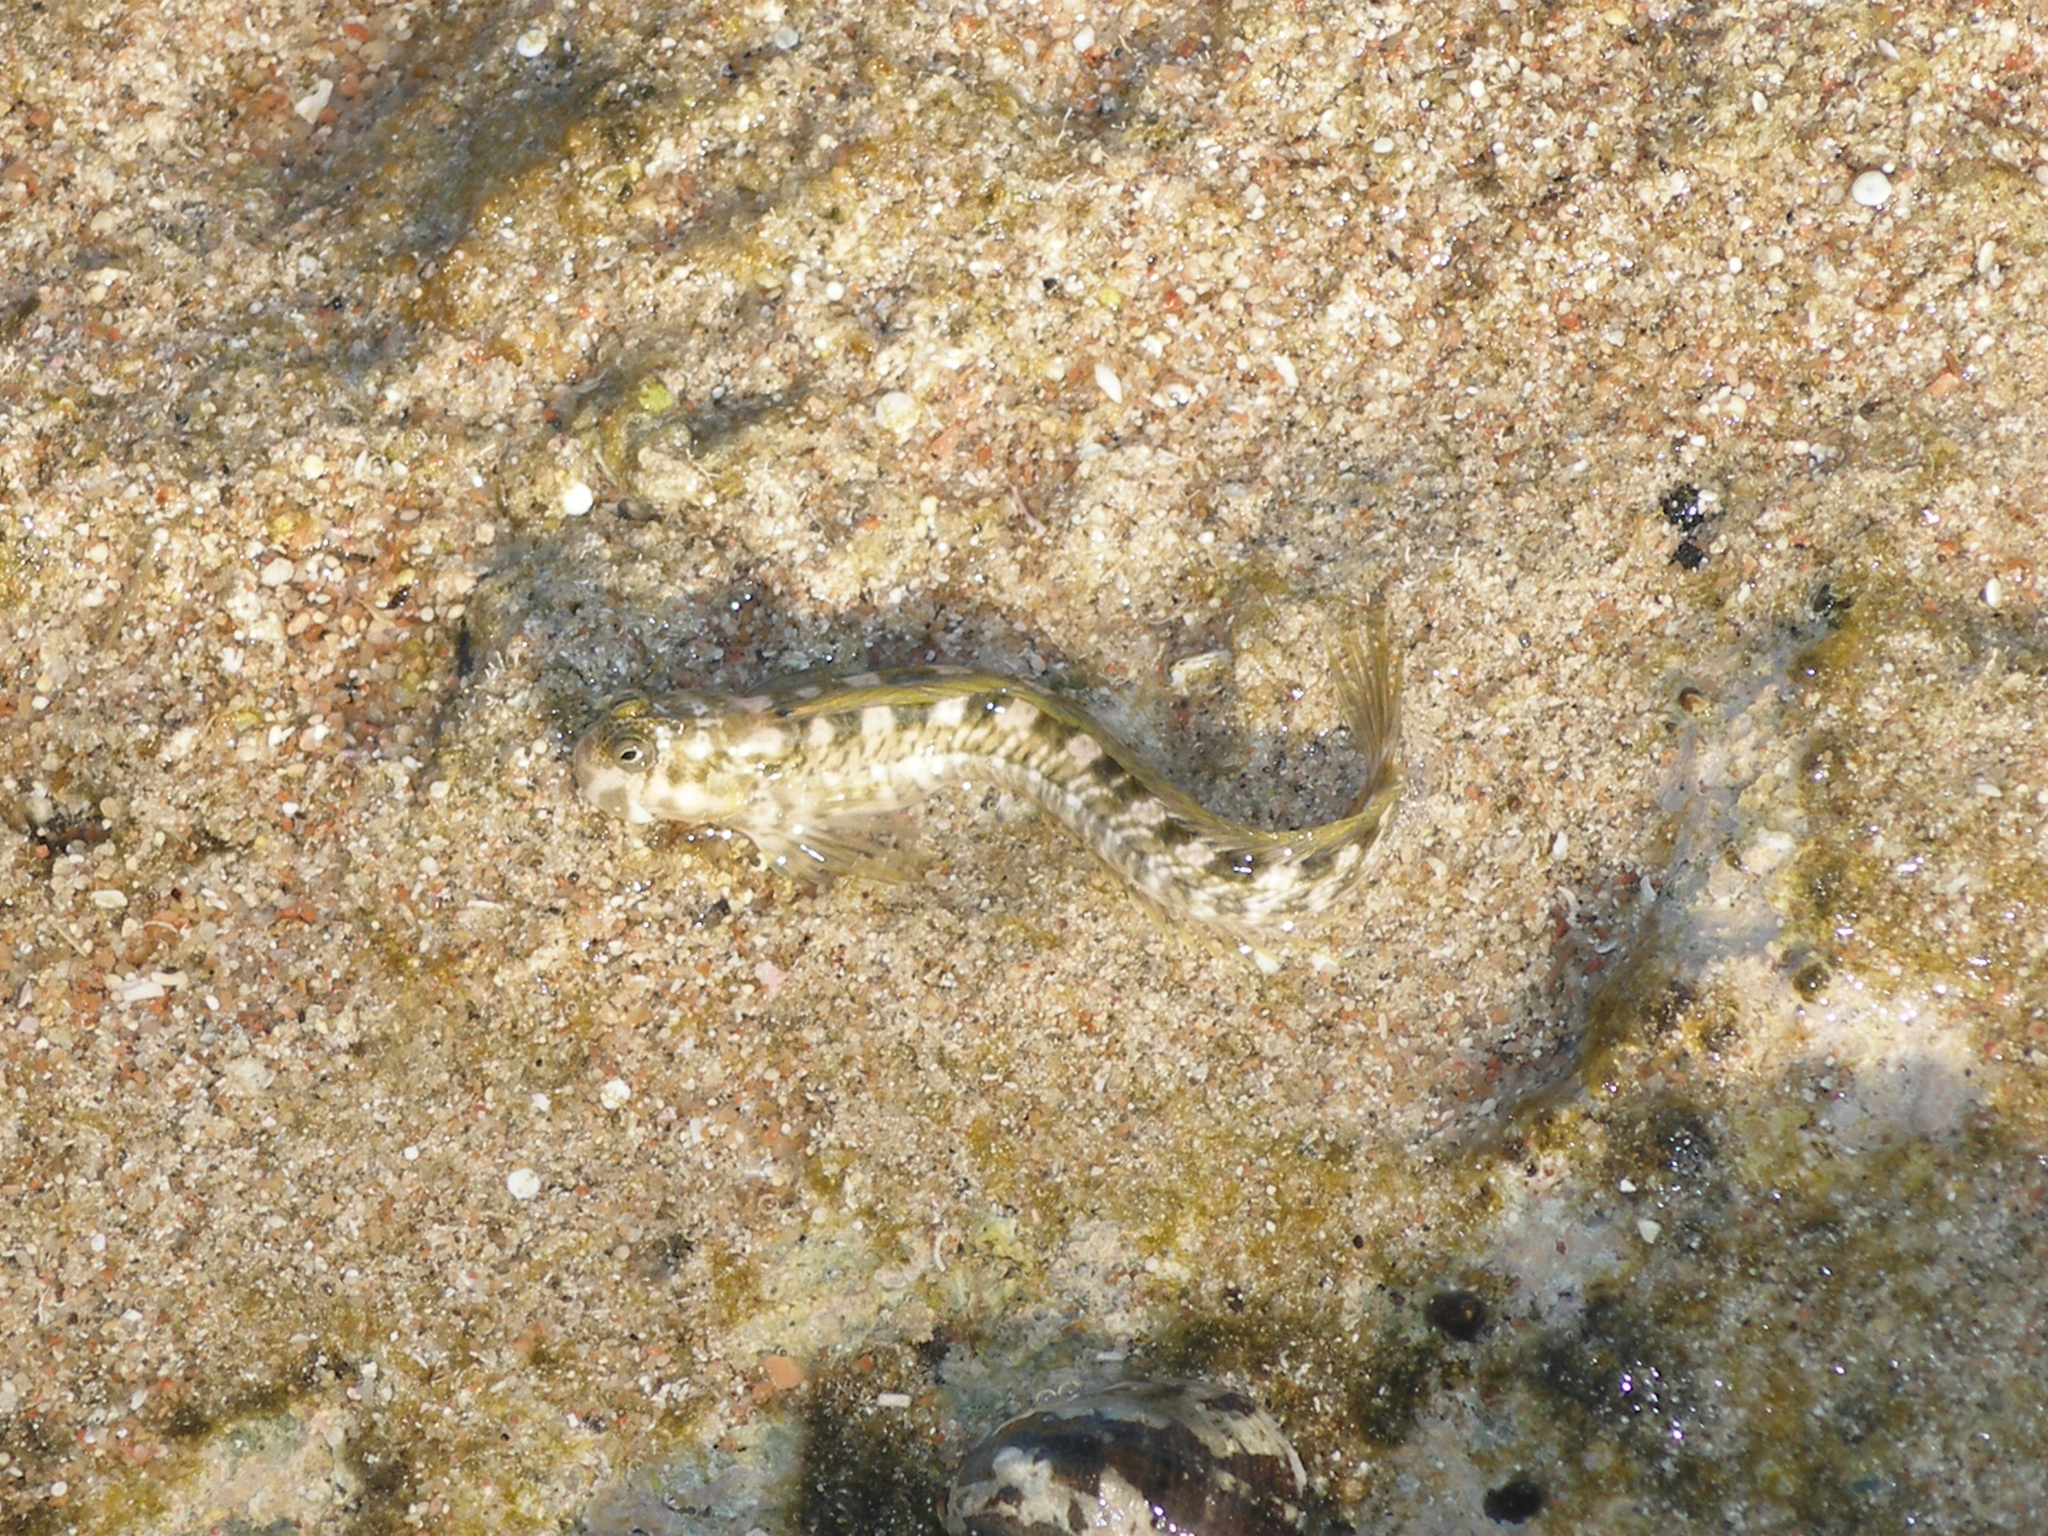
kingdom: Animalia
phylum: Chordata
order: Perciformes
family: Blenniidae
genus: Alticus
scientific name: Alticus magnusi
